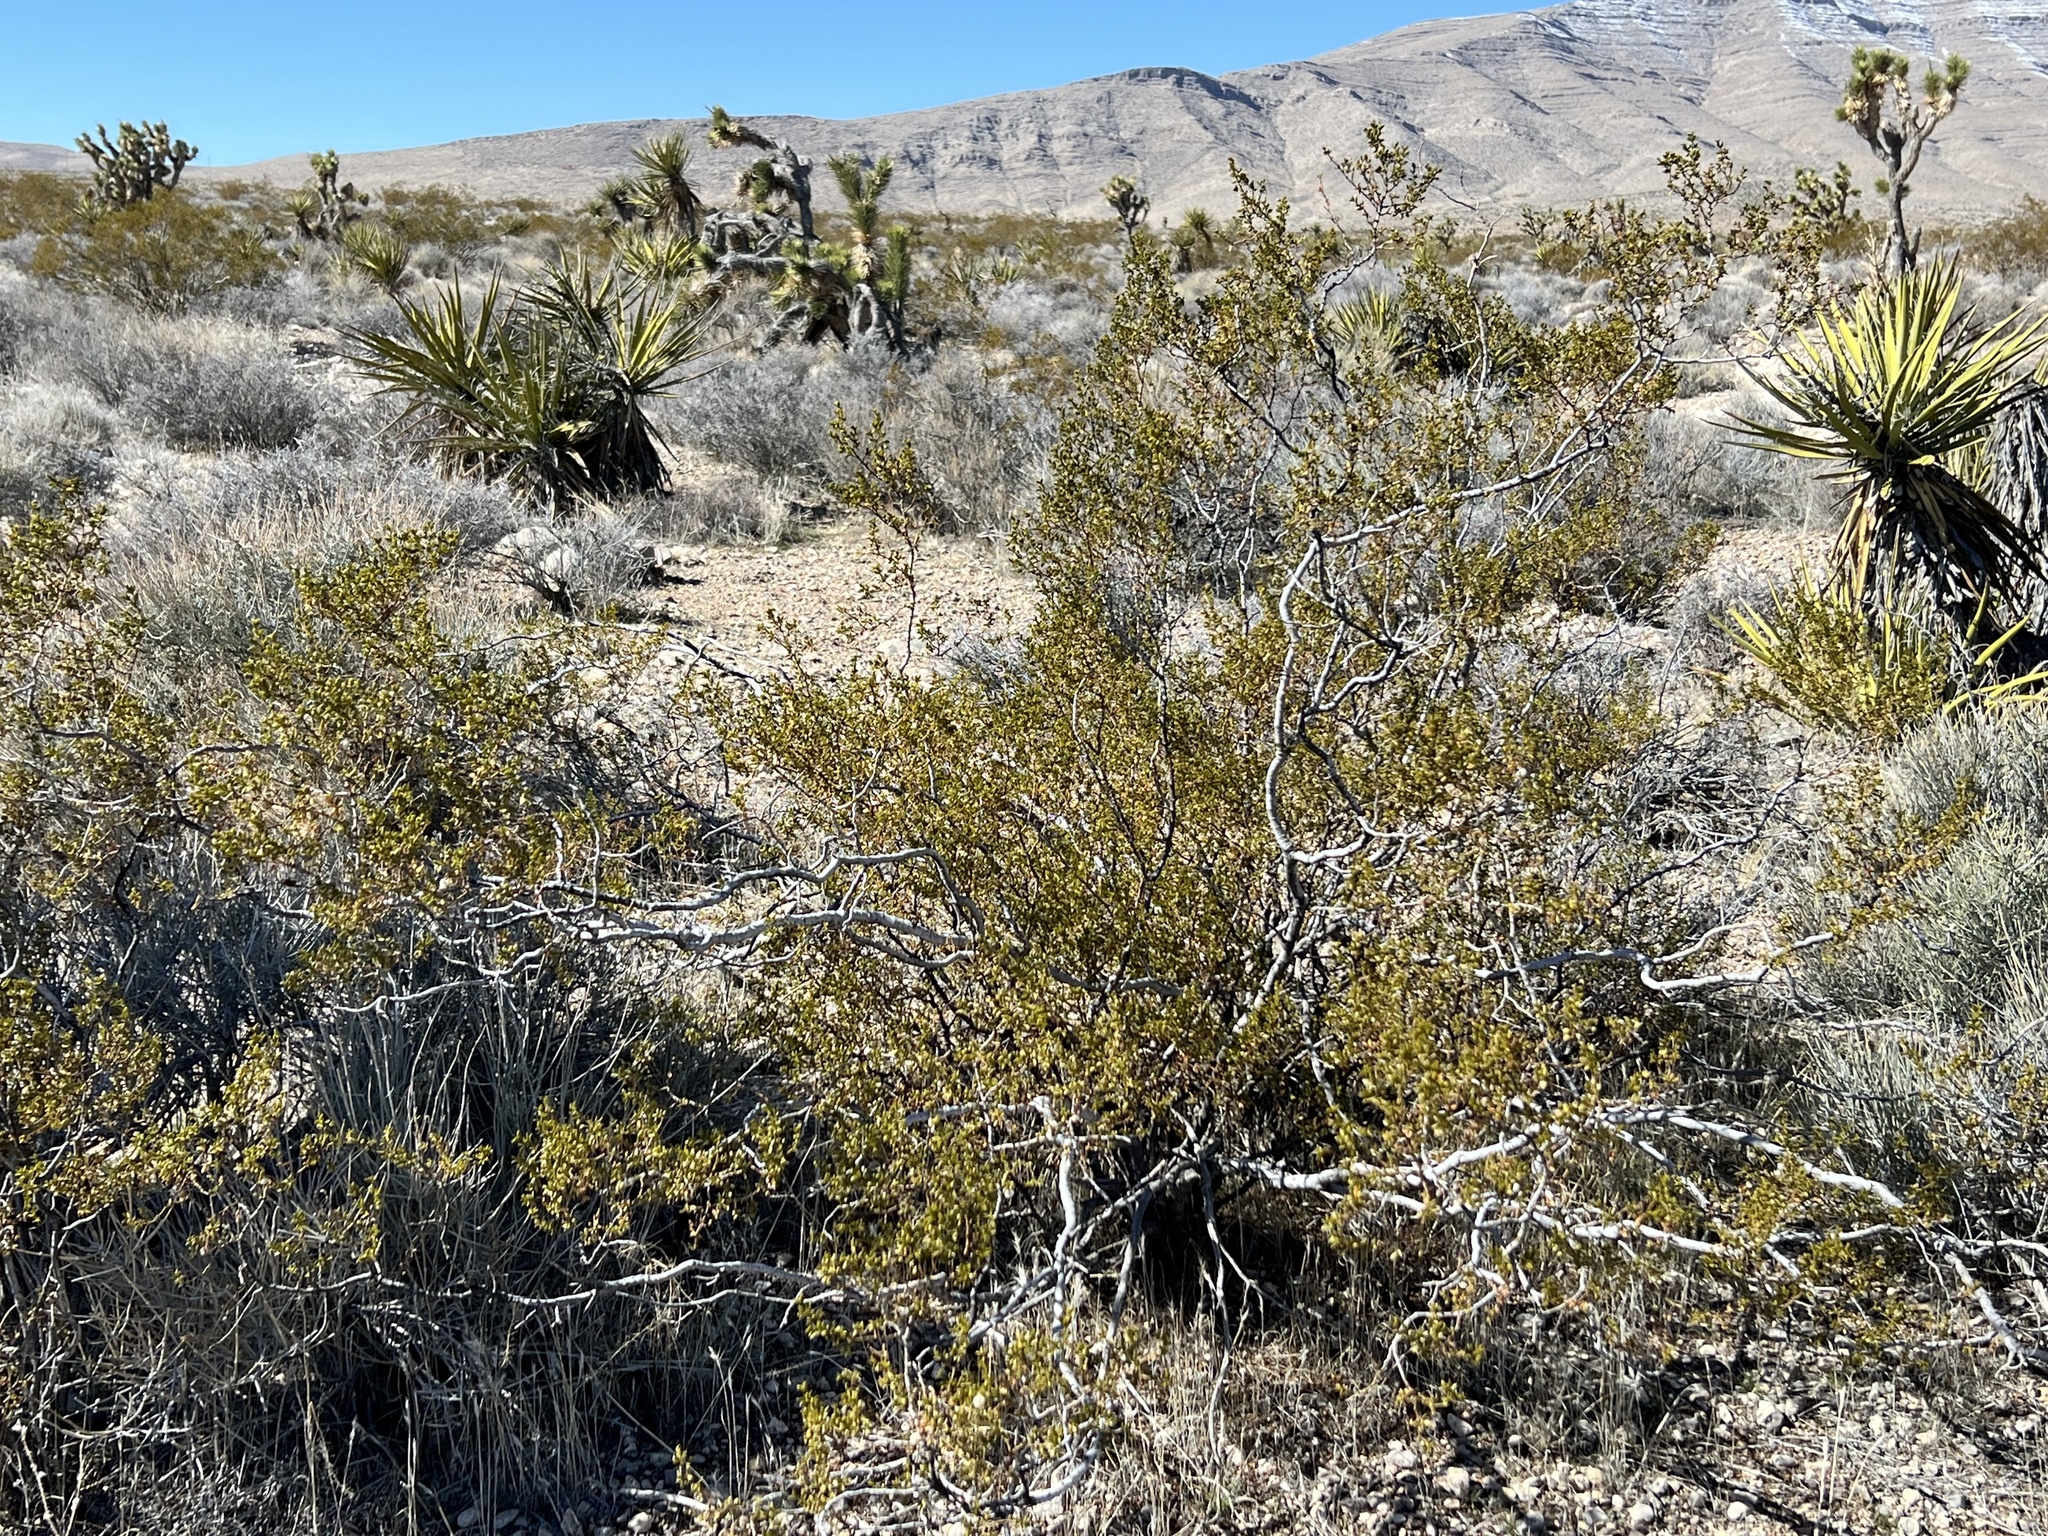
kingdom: Plantae
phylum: Tracheophyta
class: Magnoliopsida
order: Zygophyllales
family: Zygophyllaceae
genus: Larrea
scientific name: Larrea tridentata
